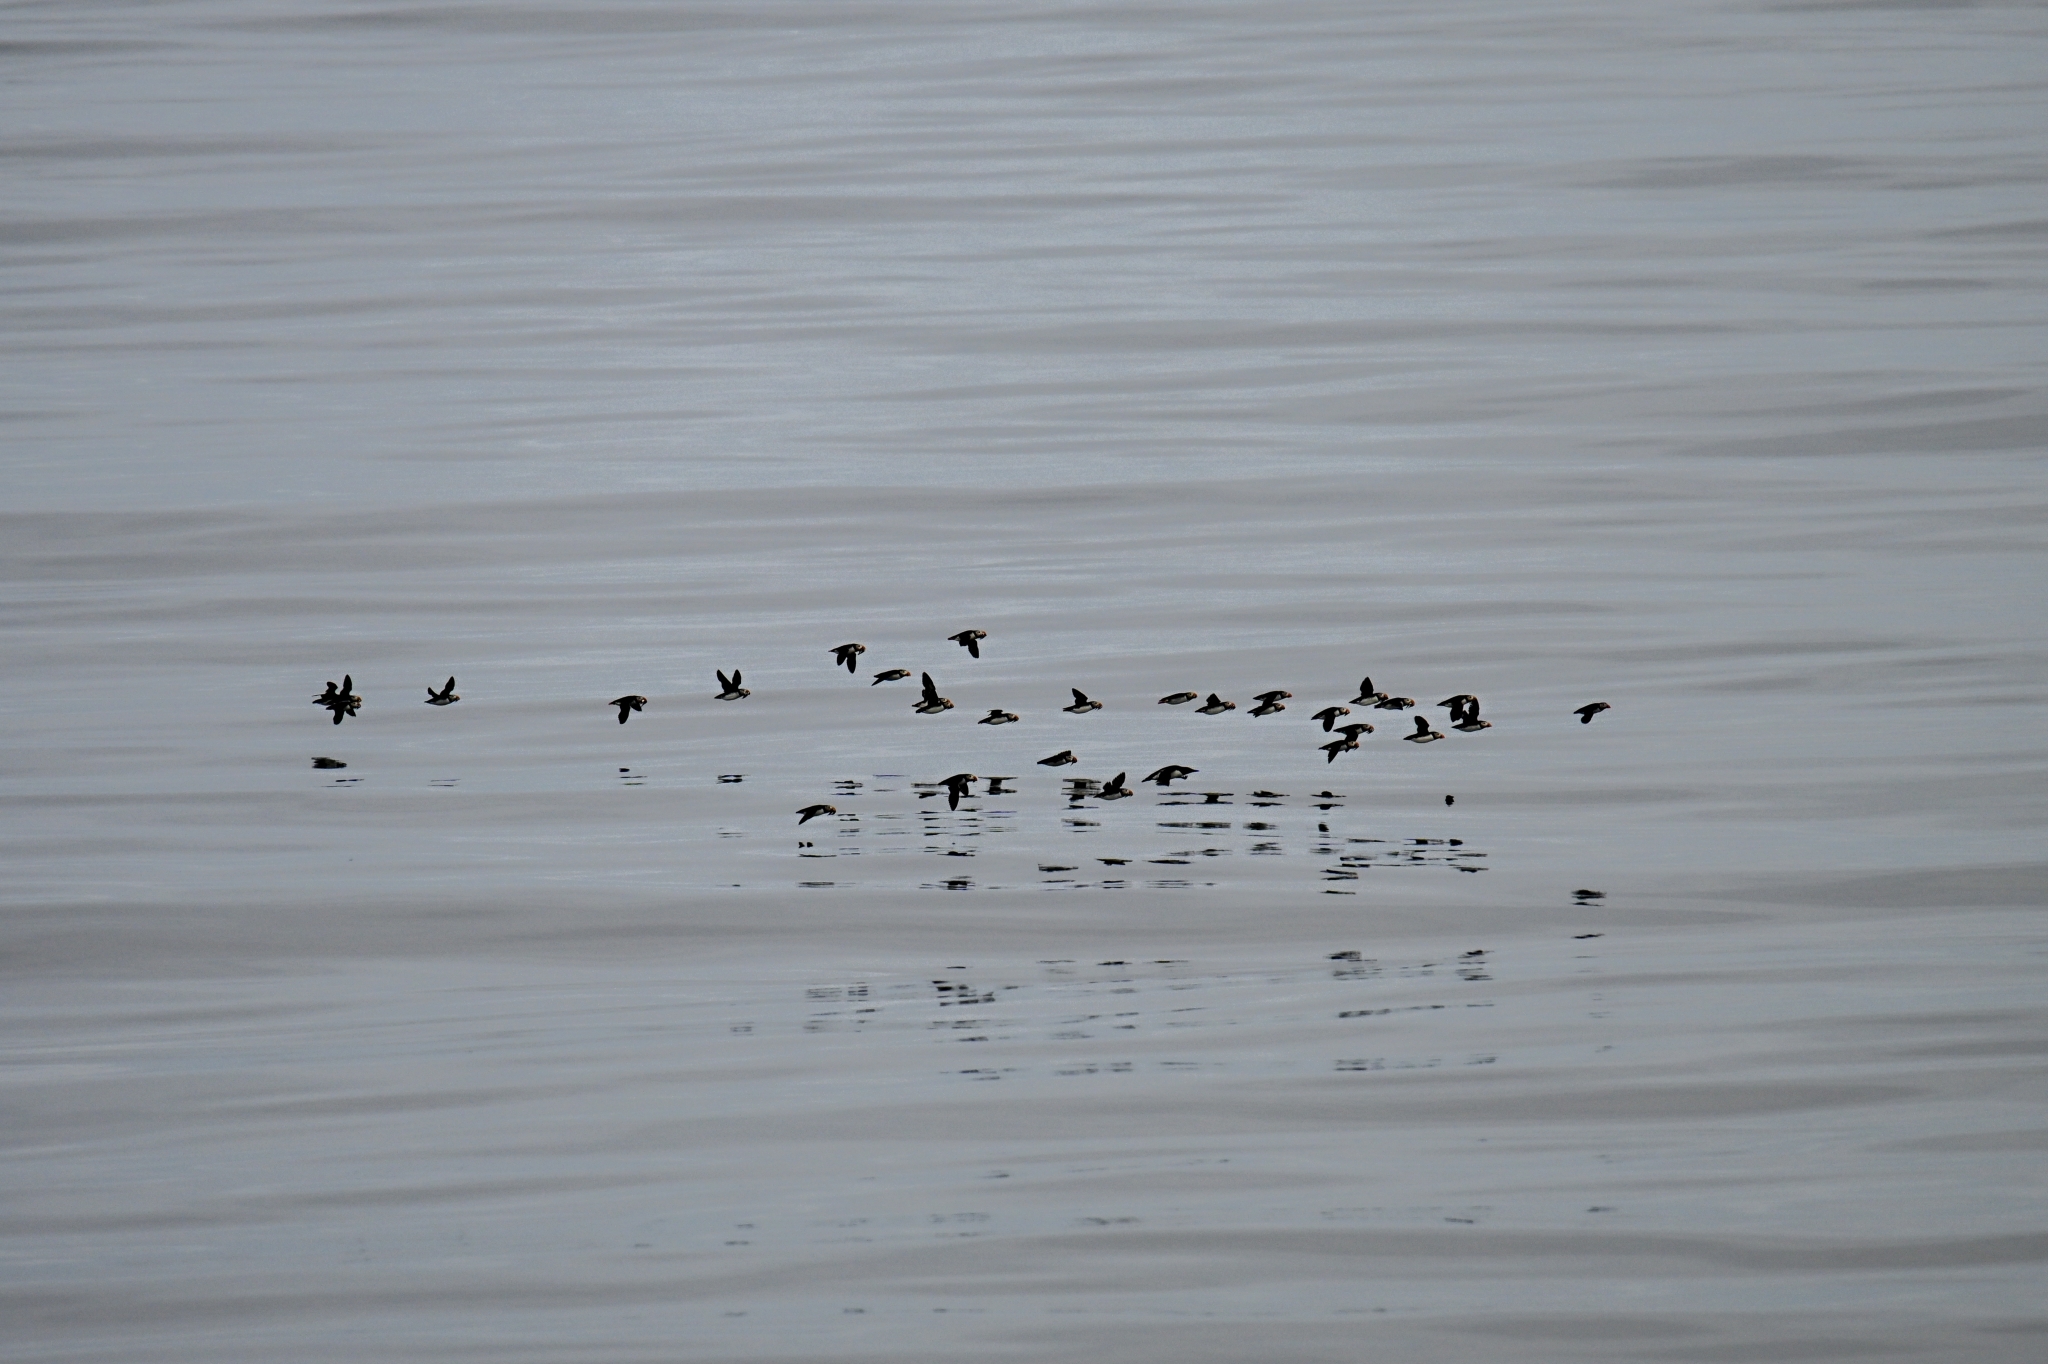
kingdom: Animalia
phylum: Chordata
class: Aves
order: Charadriiformes
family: Alcidae
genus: Fratercula
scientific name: Fratercula arctica
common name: Atlantic puffin
